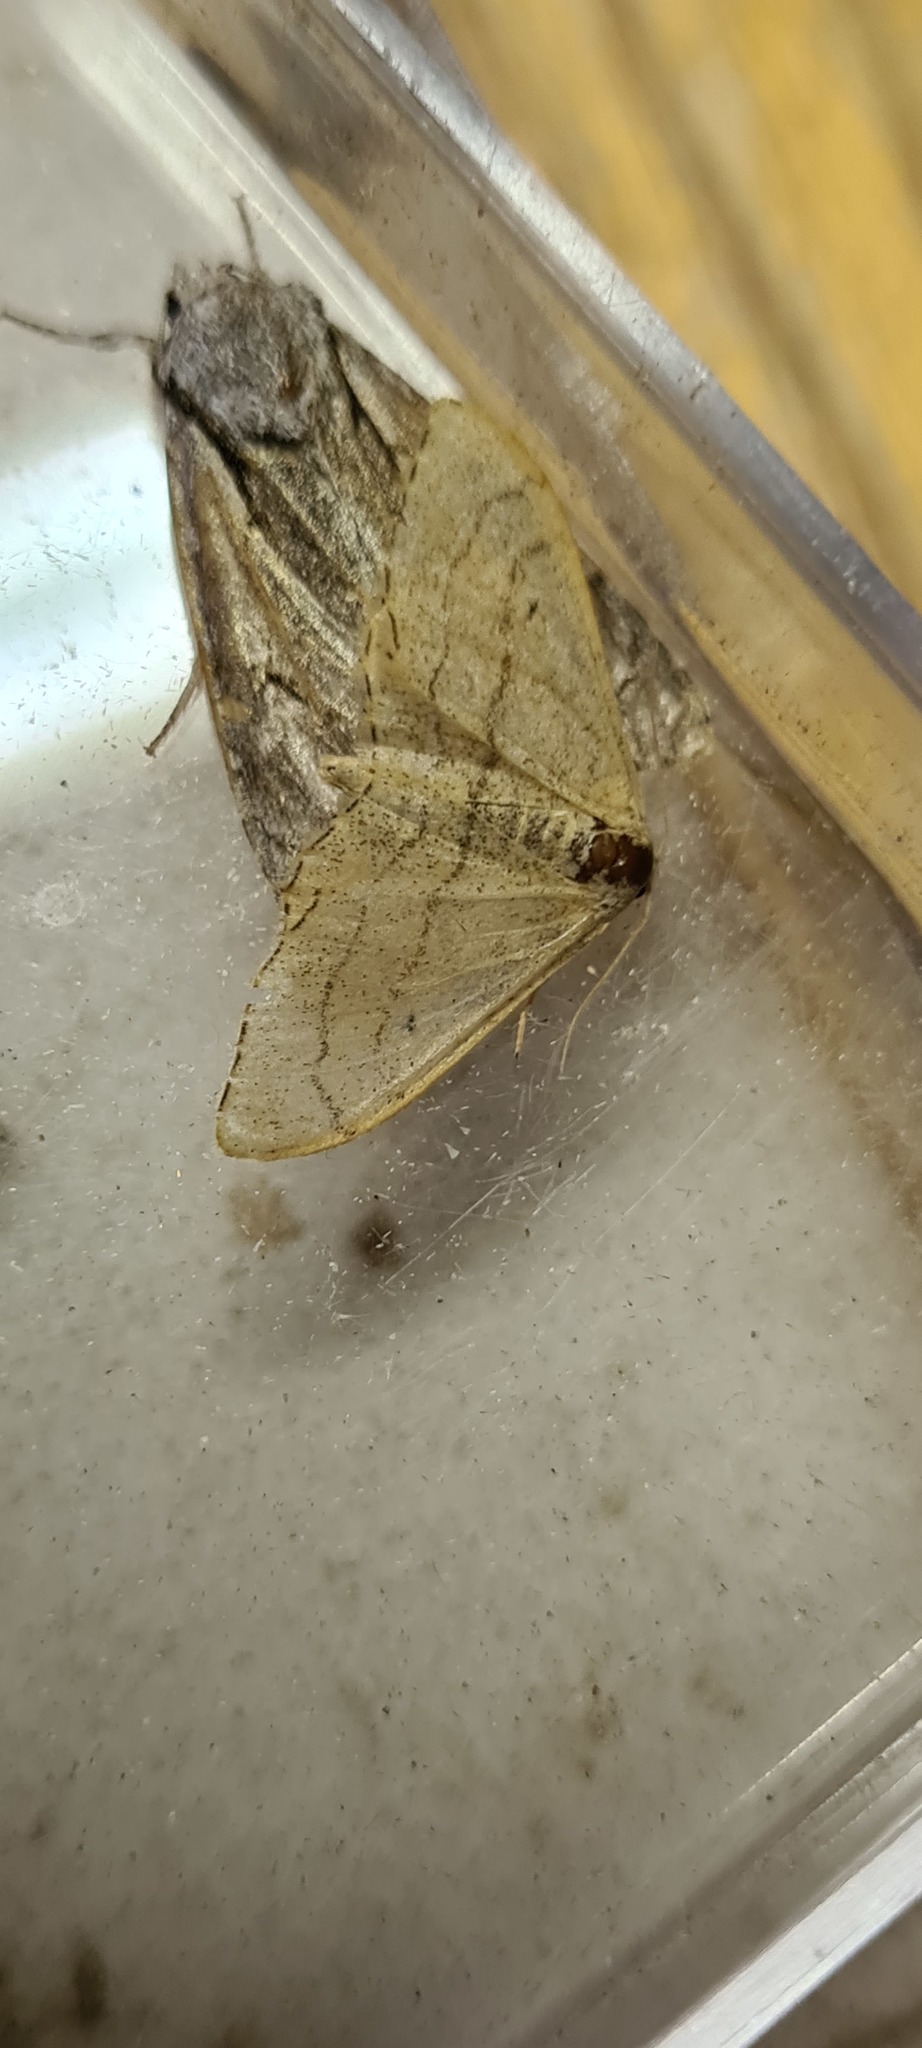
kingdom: Animalia
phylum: Arthropoda
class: Insecta
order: Lepidoptera
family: Geometridae
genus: Idaea
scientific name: Idaea aversata
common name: Riband wave
